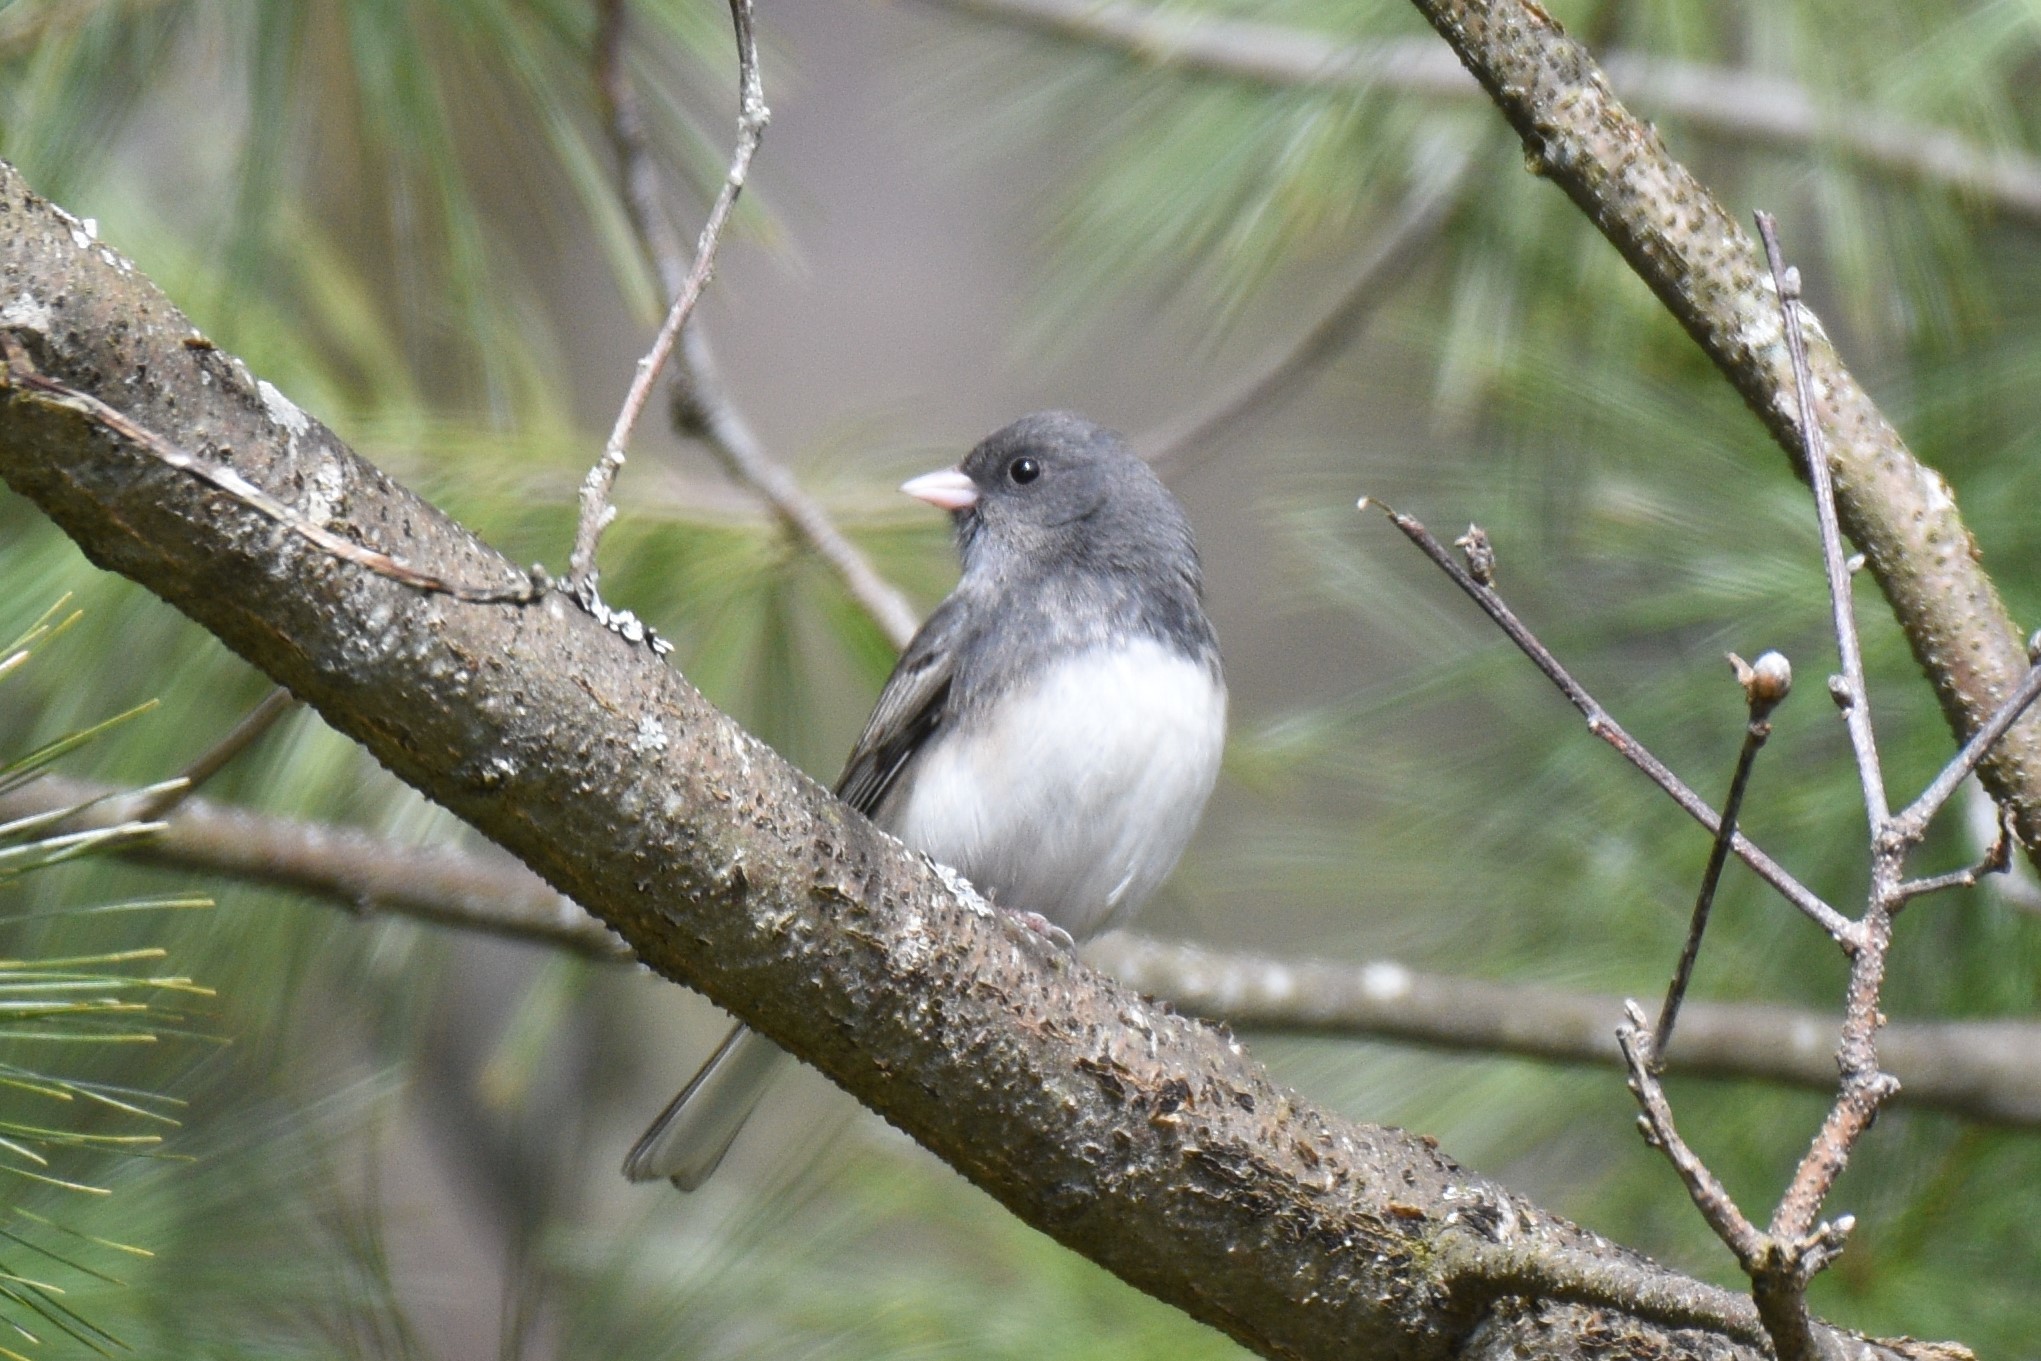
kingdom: Animalia
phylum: Chordata
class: Aves
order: Passeriformes
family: Passerellidae
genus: Junco
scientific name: Junco hyemalis
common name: Dark-eyed junco
